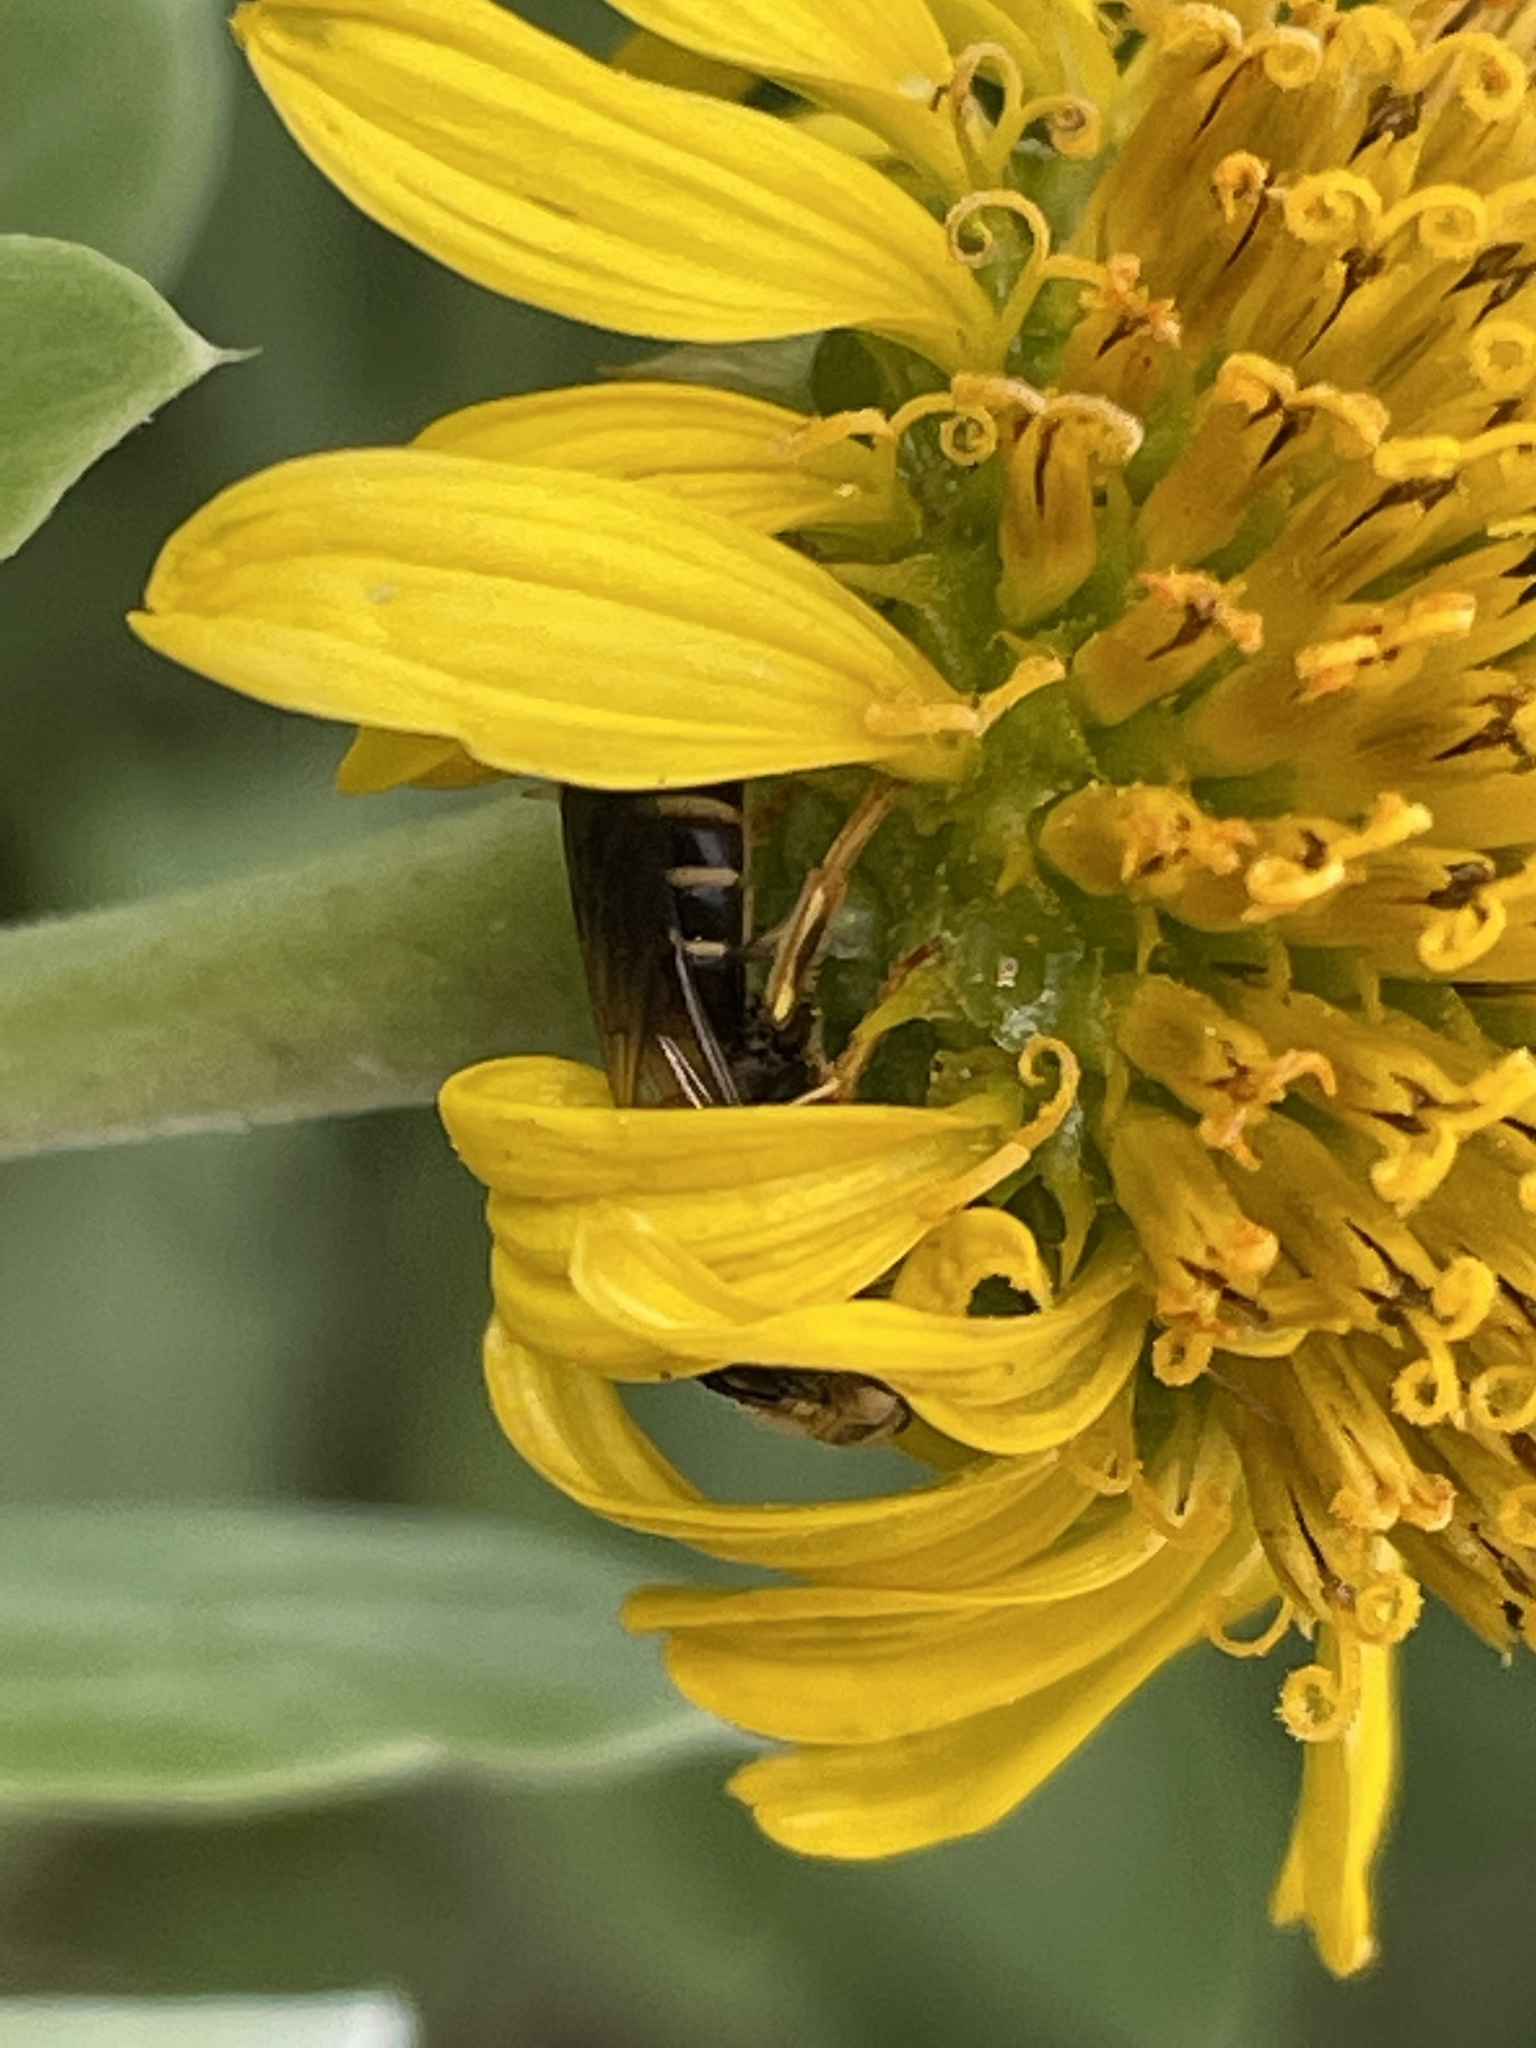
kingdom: Animalia
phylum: Arthropoda
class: Insecta
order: Hymenoptera
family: Halictidae
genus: Halictus
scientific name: Halictus poeyi
